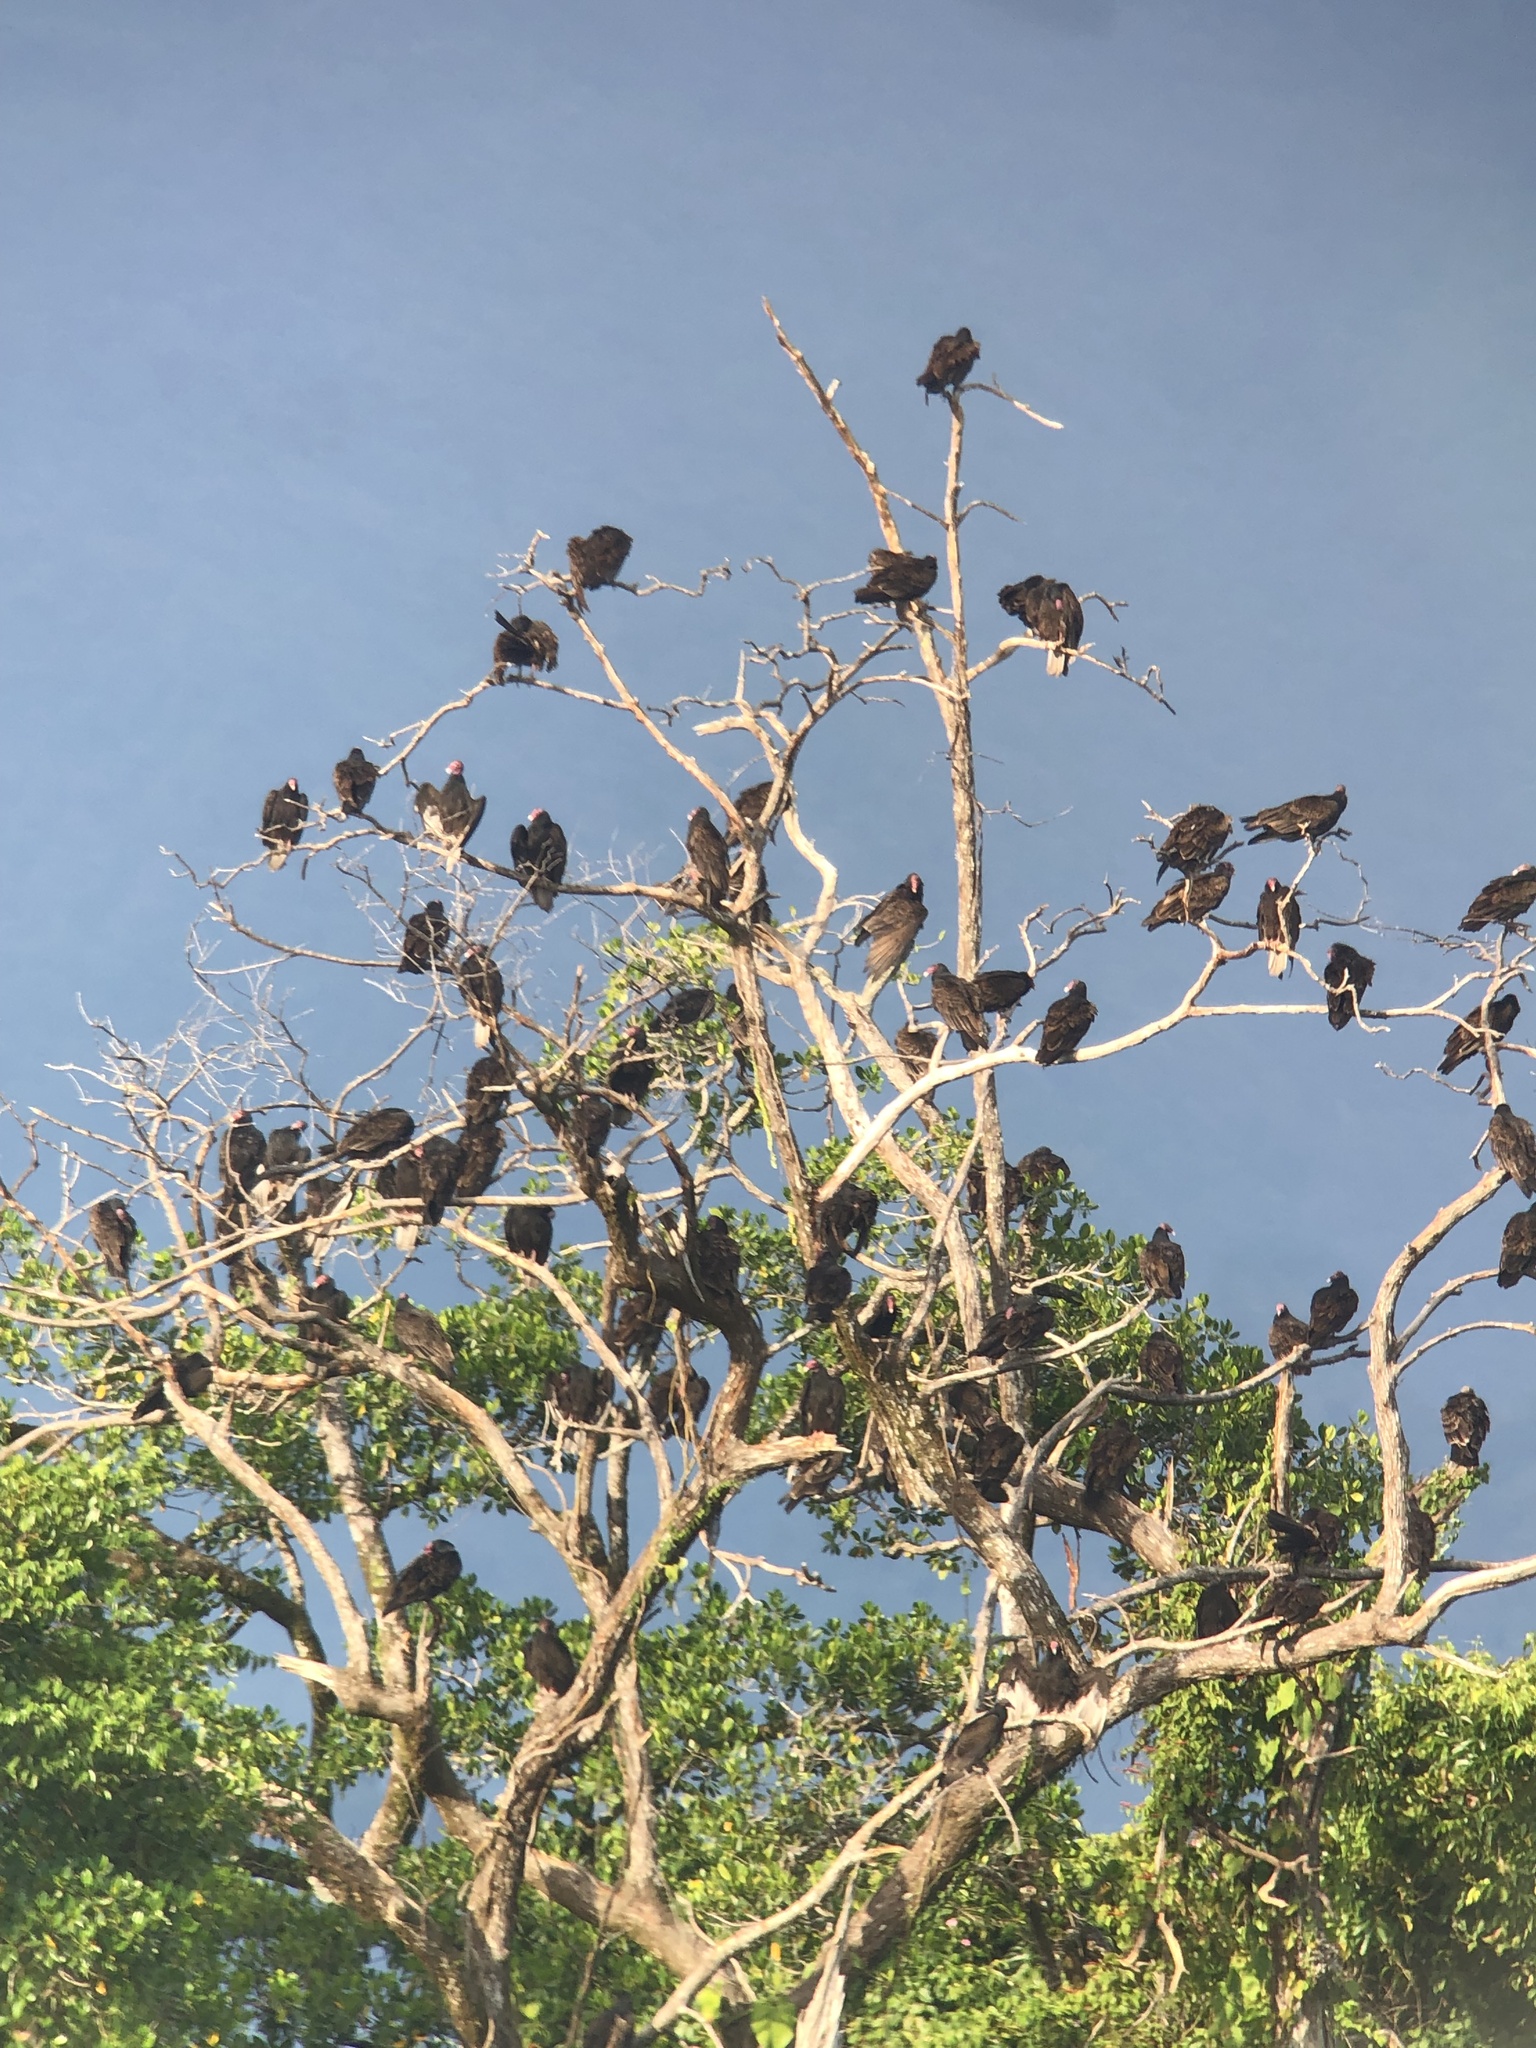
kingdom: Animalia
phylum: Chordata
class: Aves
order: Accipitriformes
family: Cathartidae
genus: Cathartes
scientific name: Cathartes aura
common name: Turkey vulture
